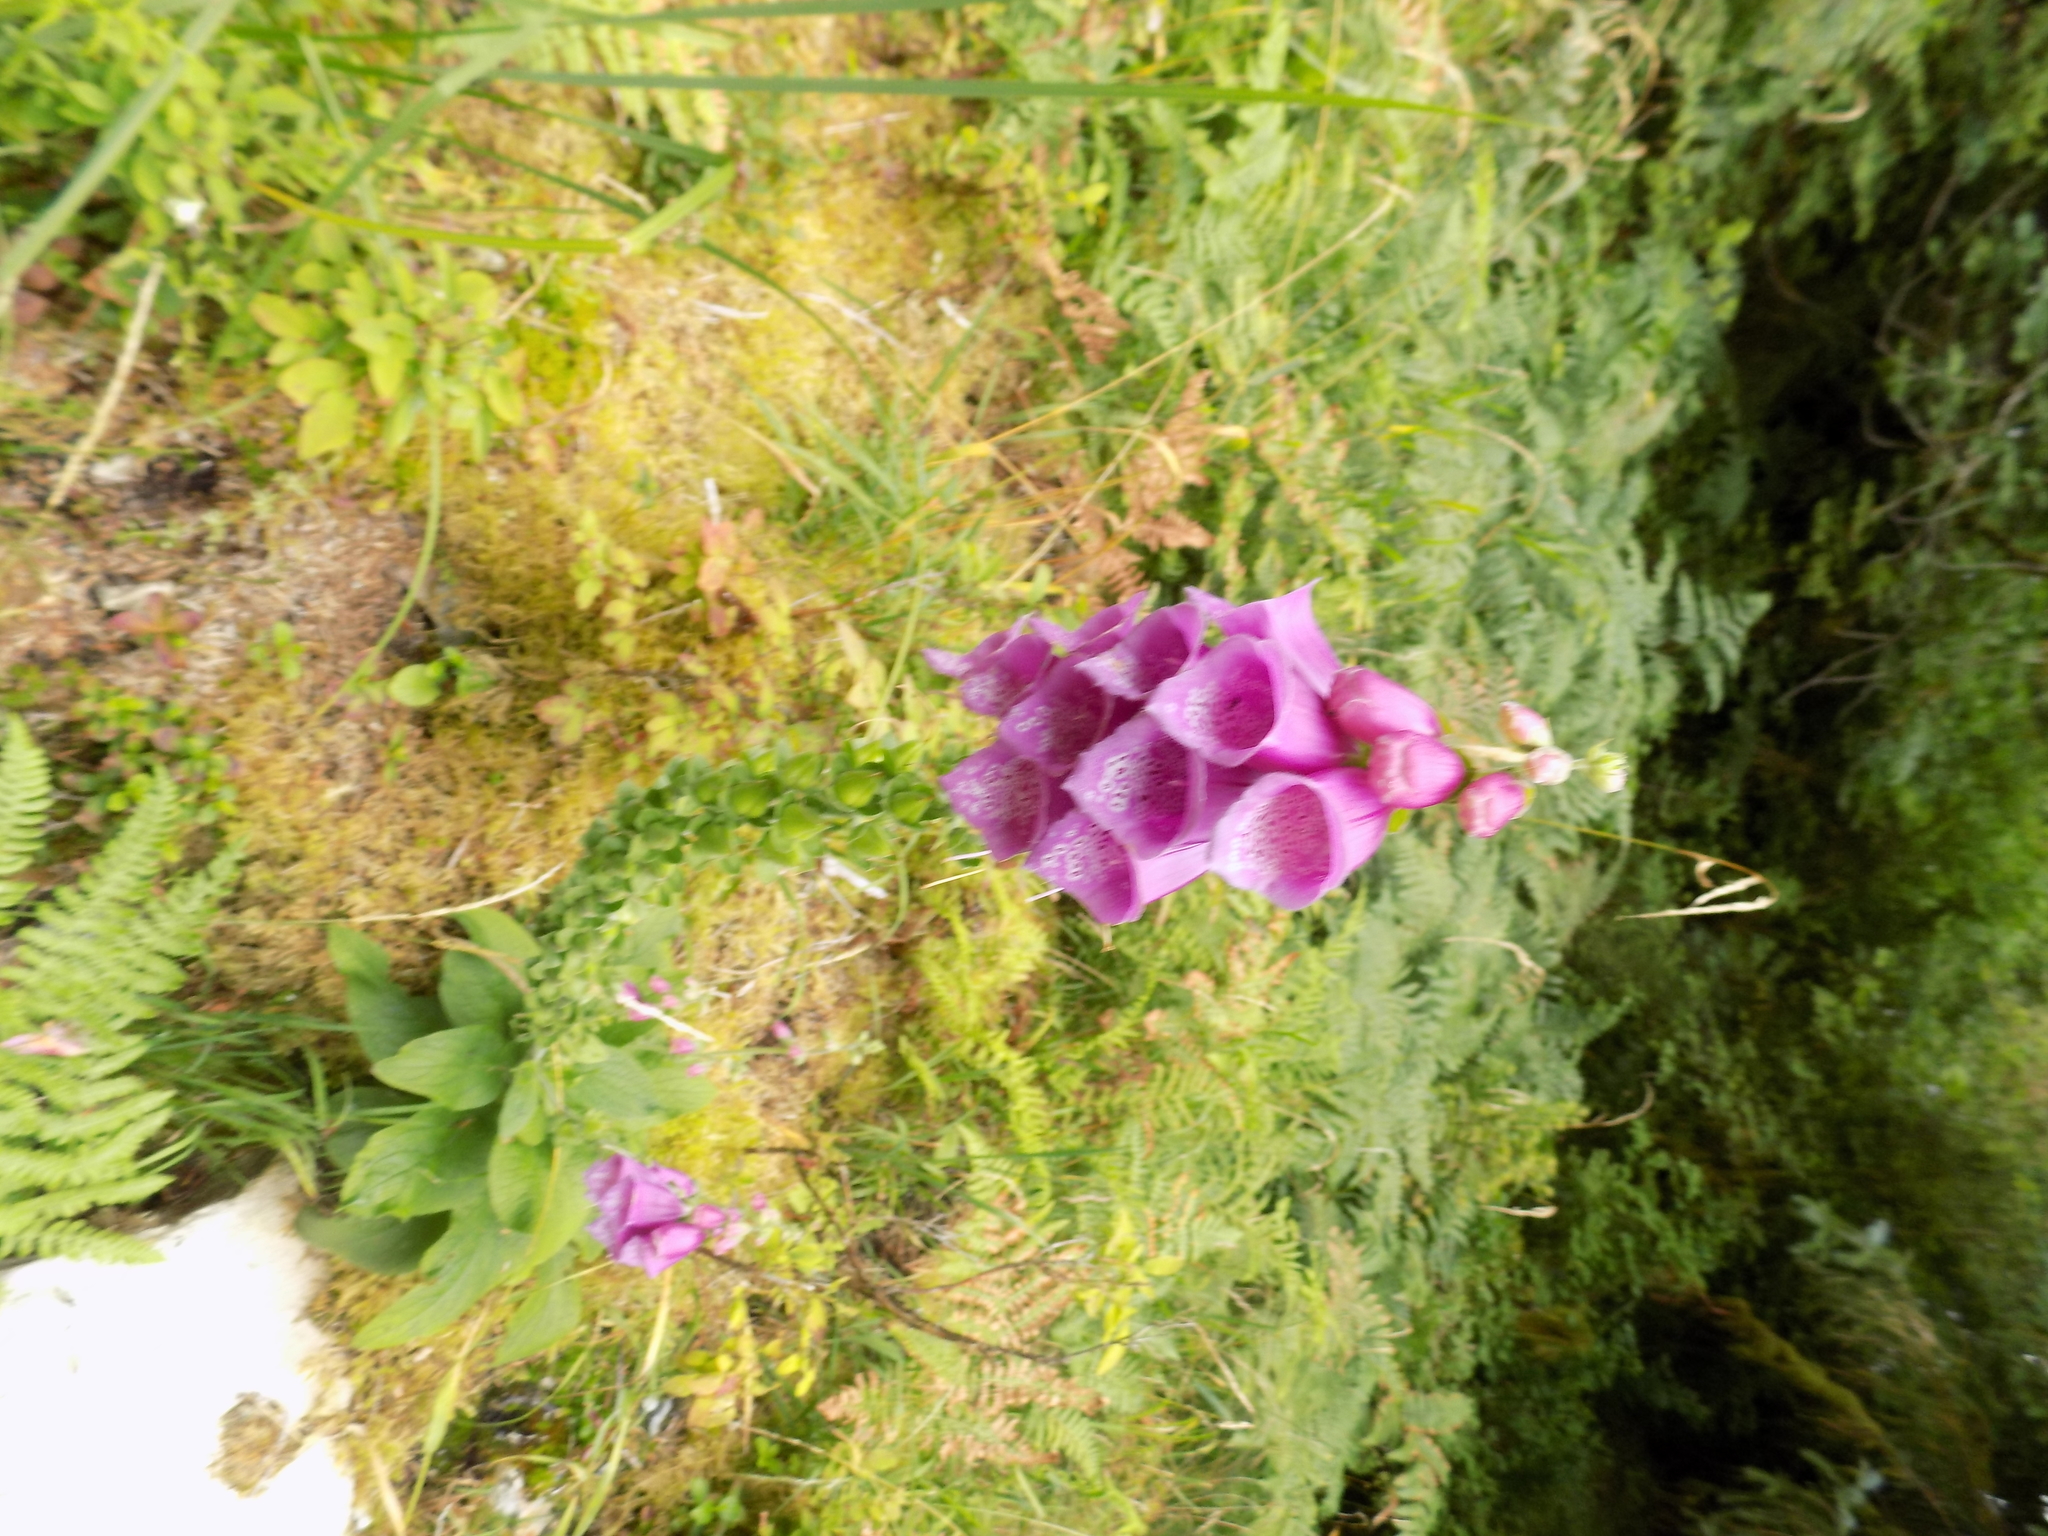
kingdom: Plantae
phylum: Tracheophyta
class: Magnoliopsida
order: Lamiales
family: Plantaginaceae
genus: Digitalis
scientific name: Digitalis purpurea
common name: Foxglove
